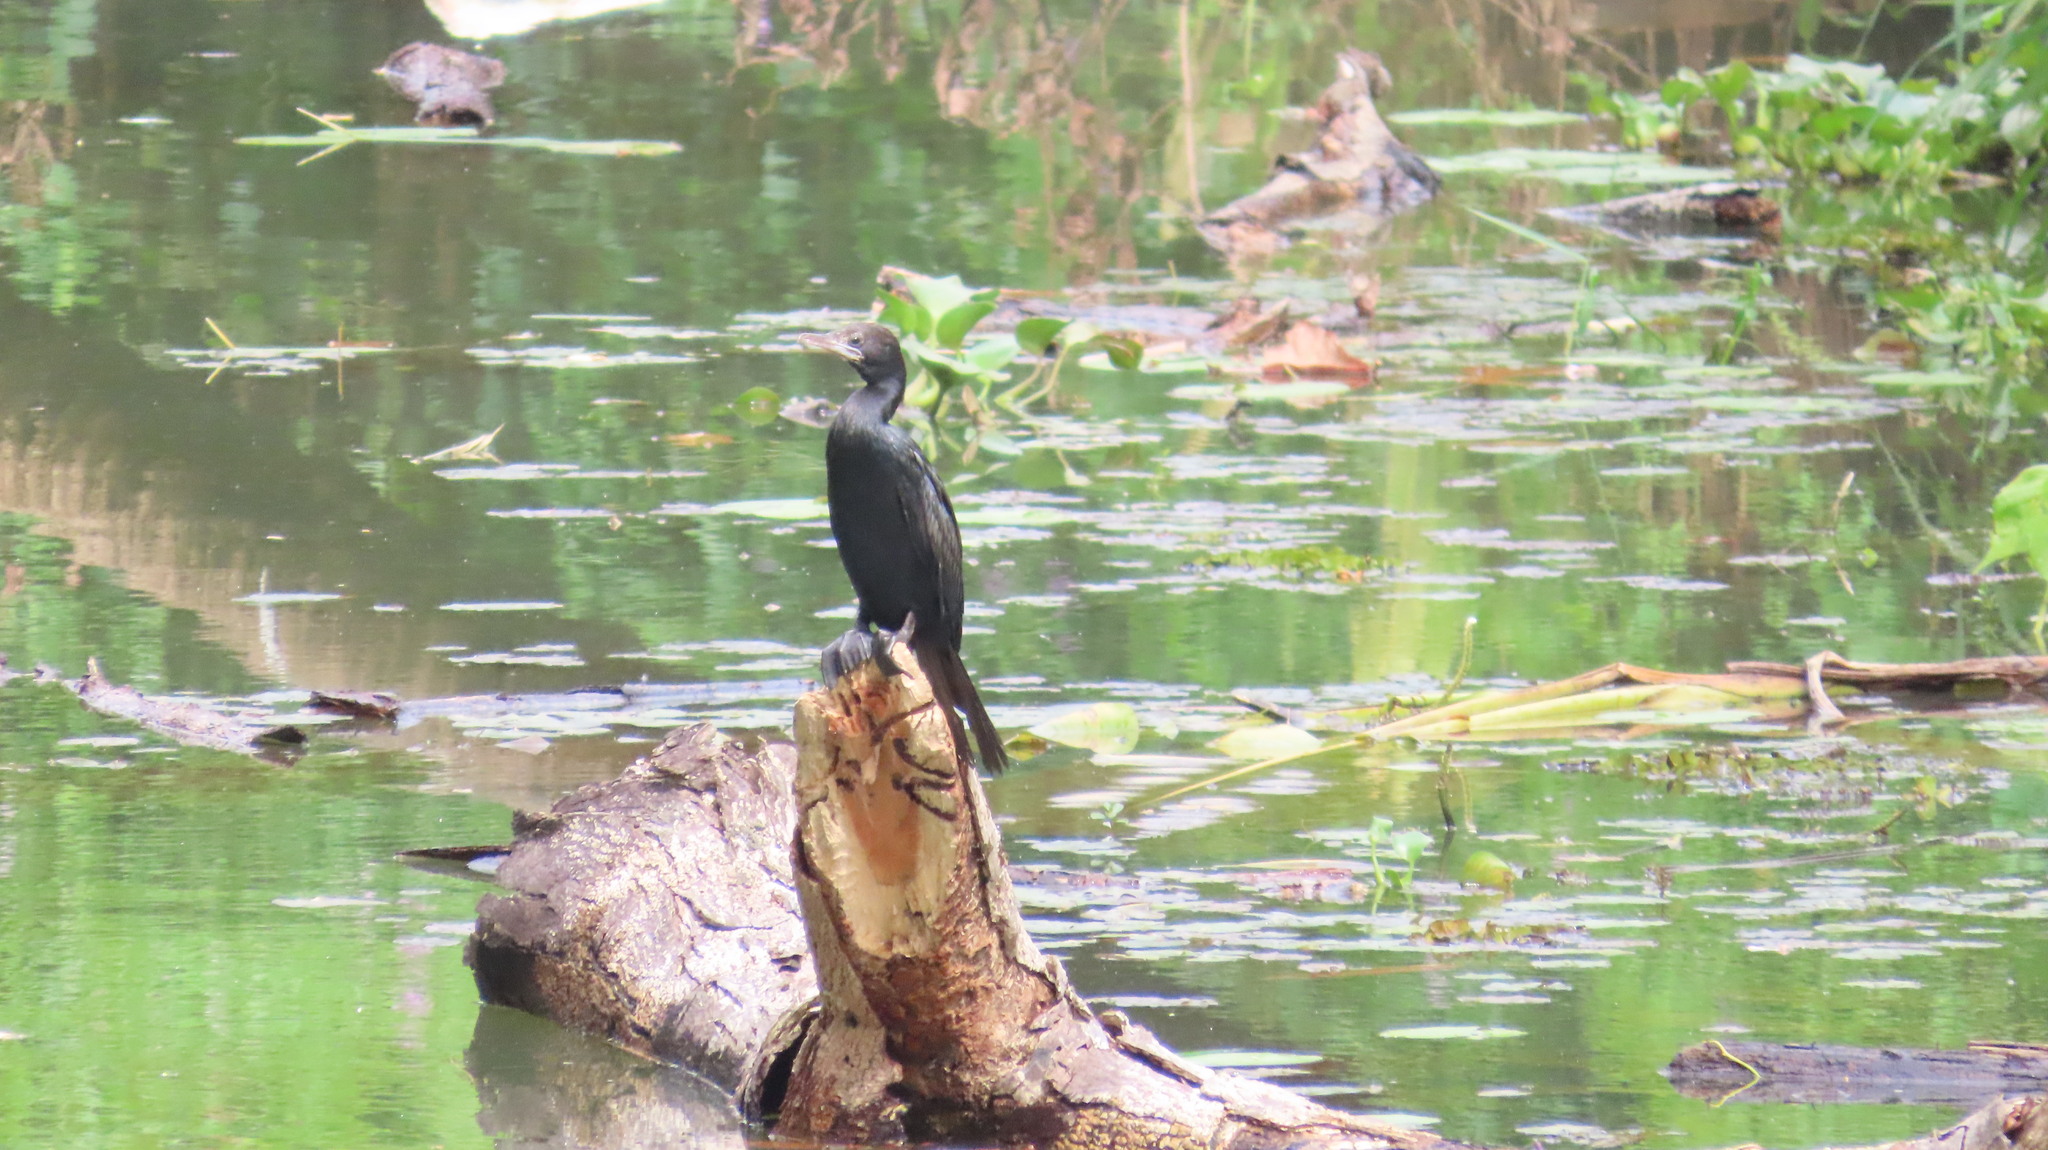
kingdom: Animalia
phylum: Chordata
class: Aves
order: Suliformes
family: Phalacrocoracidae
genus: Microcarbo
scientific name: Microcarbo niger
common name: Little cormorant
